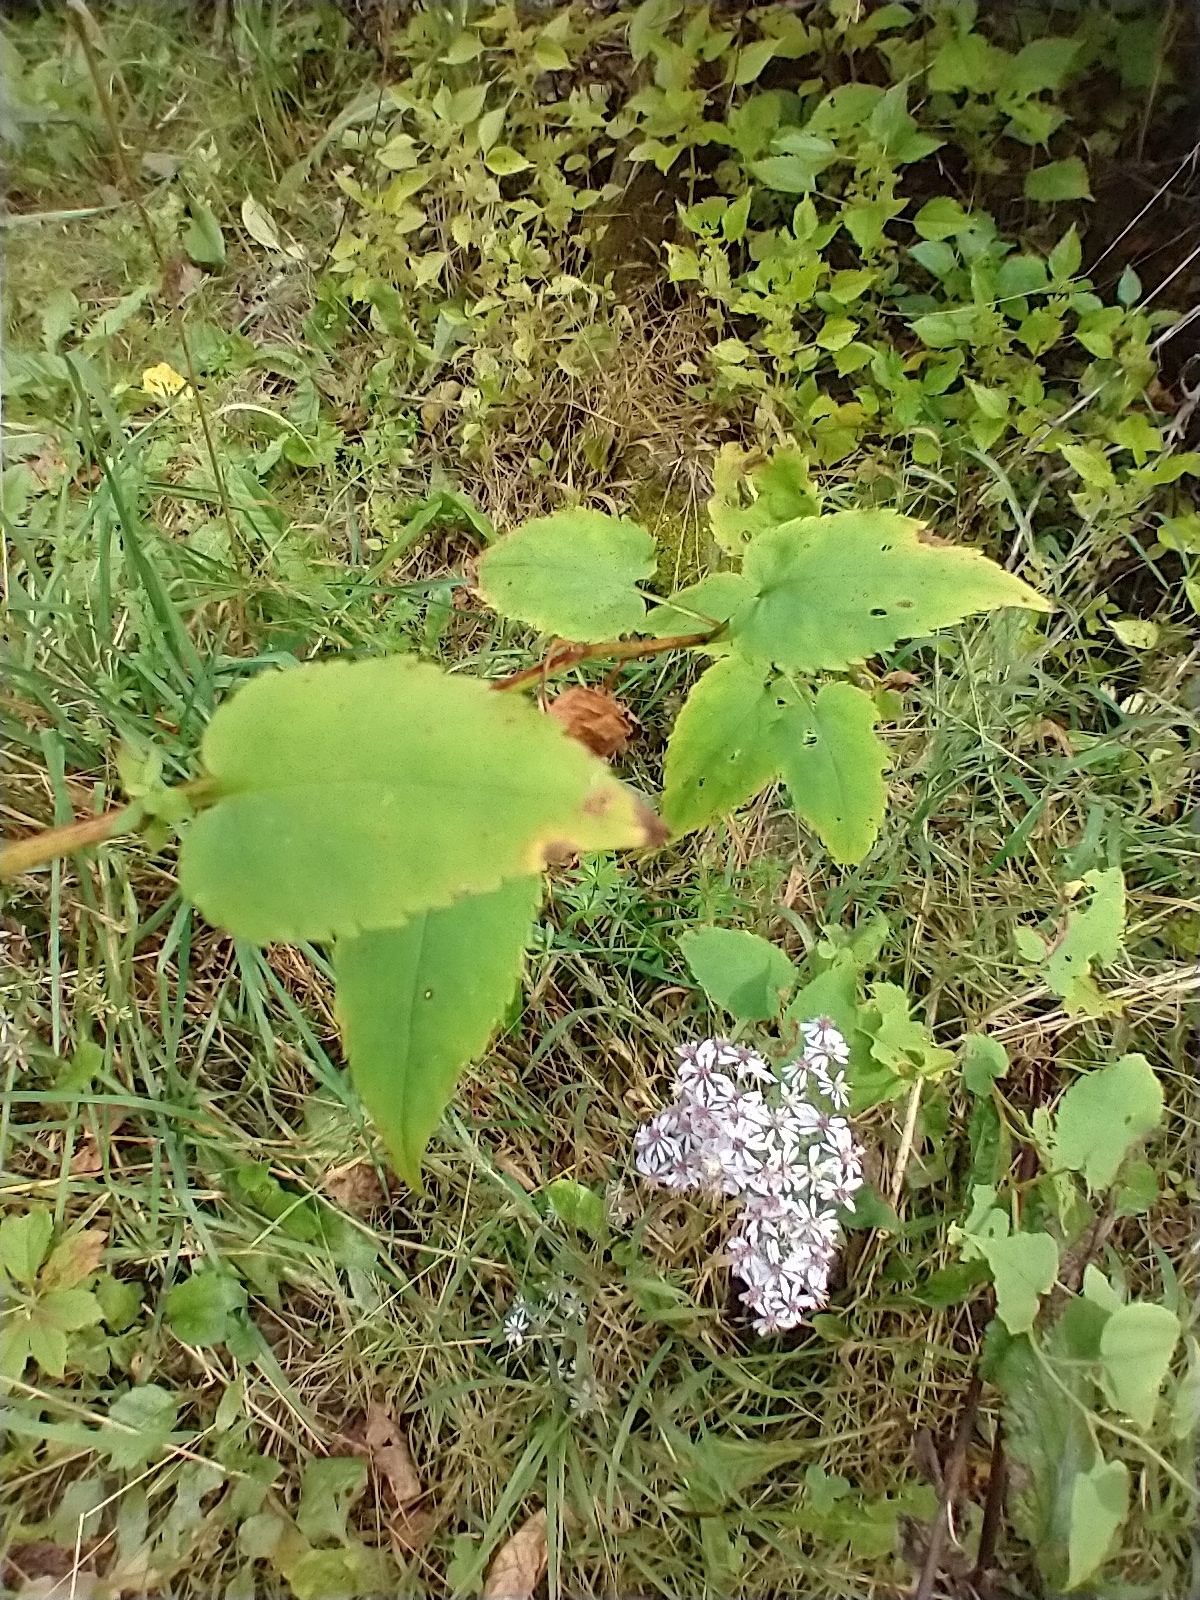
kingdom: Plantae
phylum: Tracheophyta
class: Magnoliopsida
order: Asterales
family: Asteraceae
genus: Symphyotrichum
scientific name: Symphyotrichum cordifolium
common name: Beeweed
